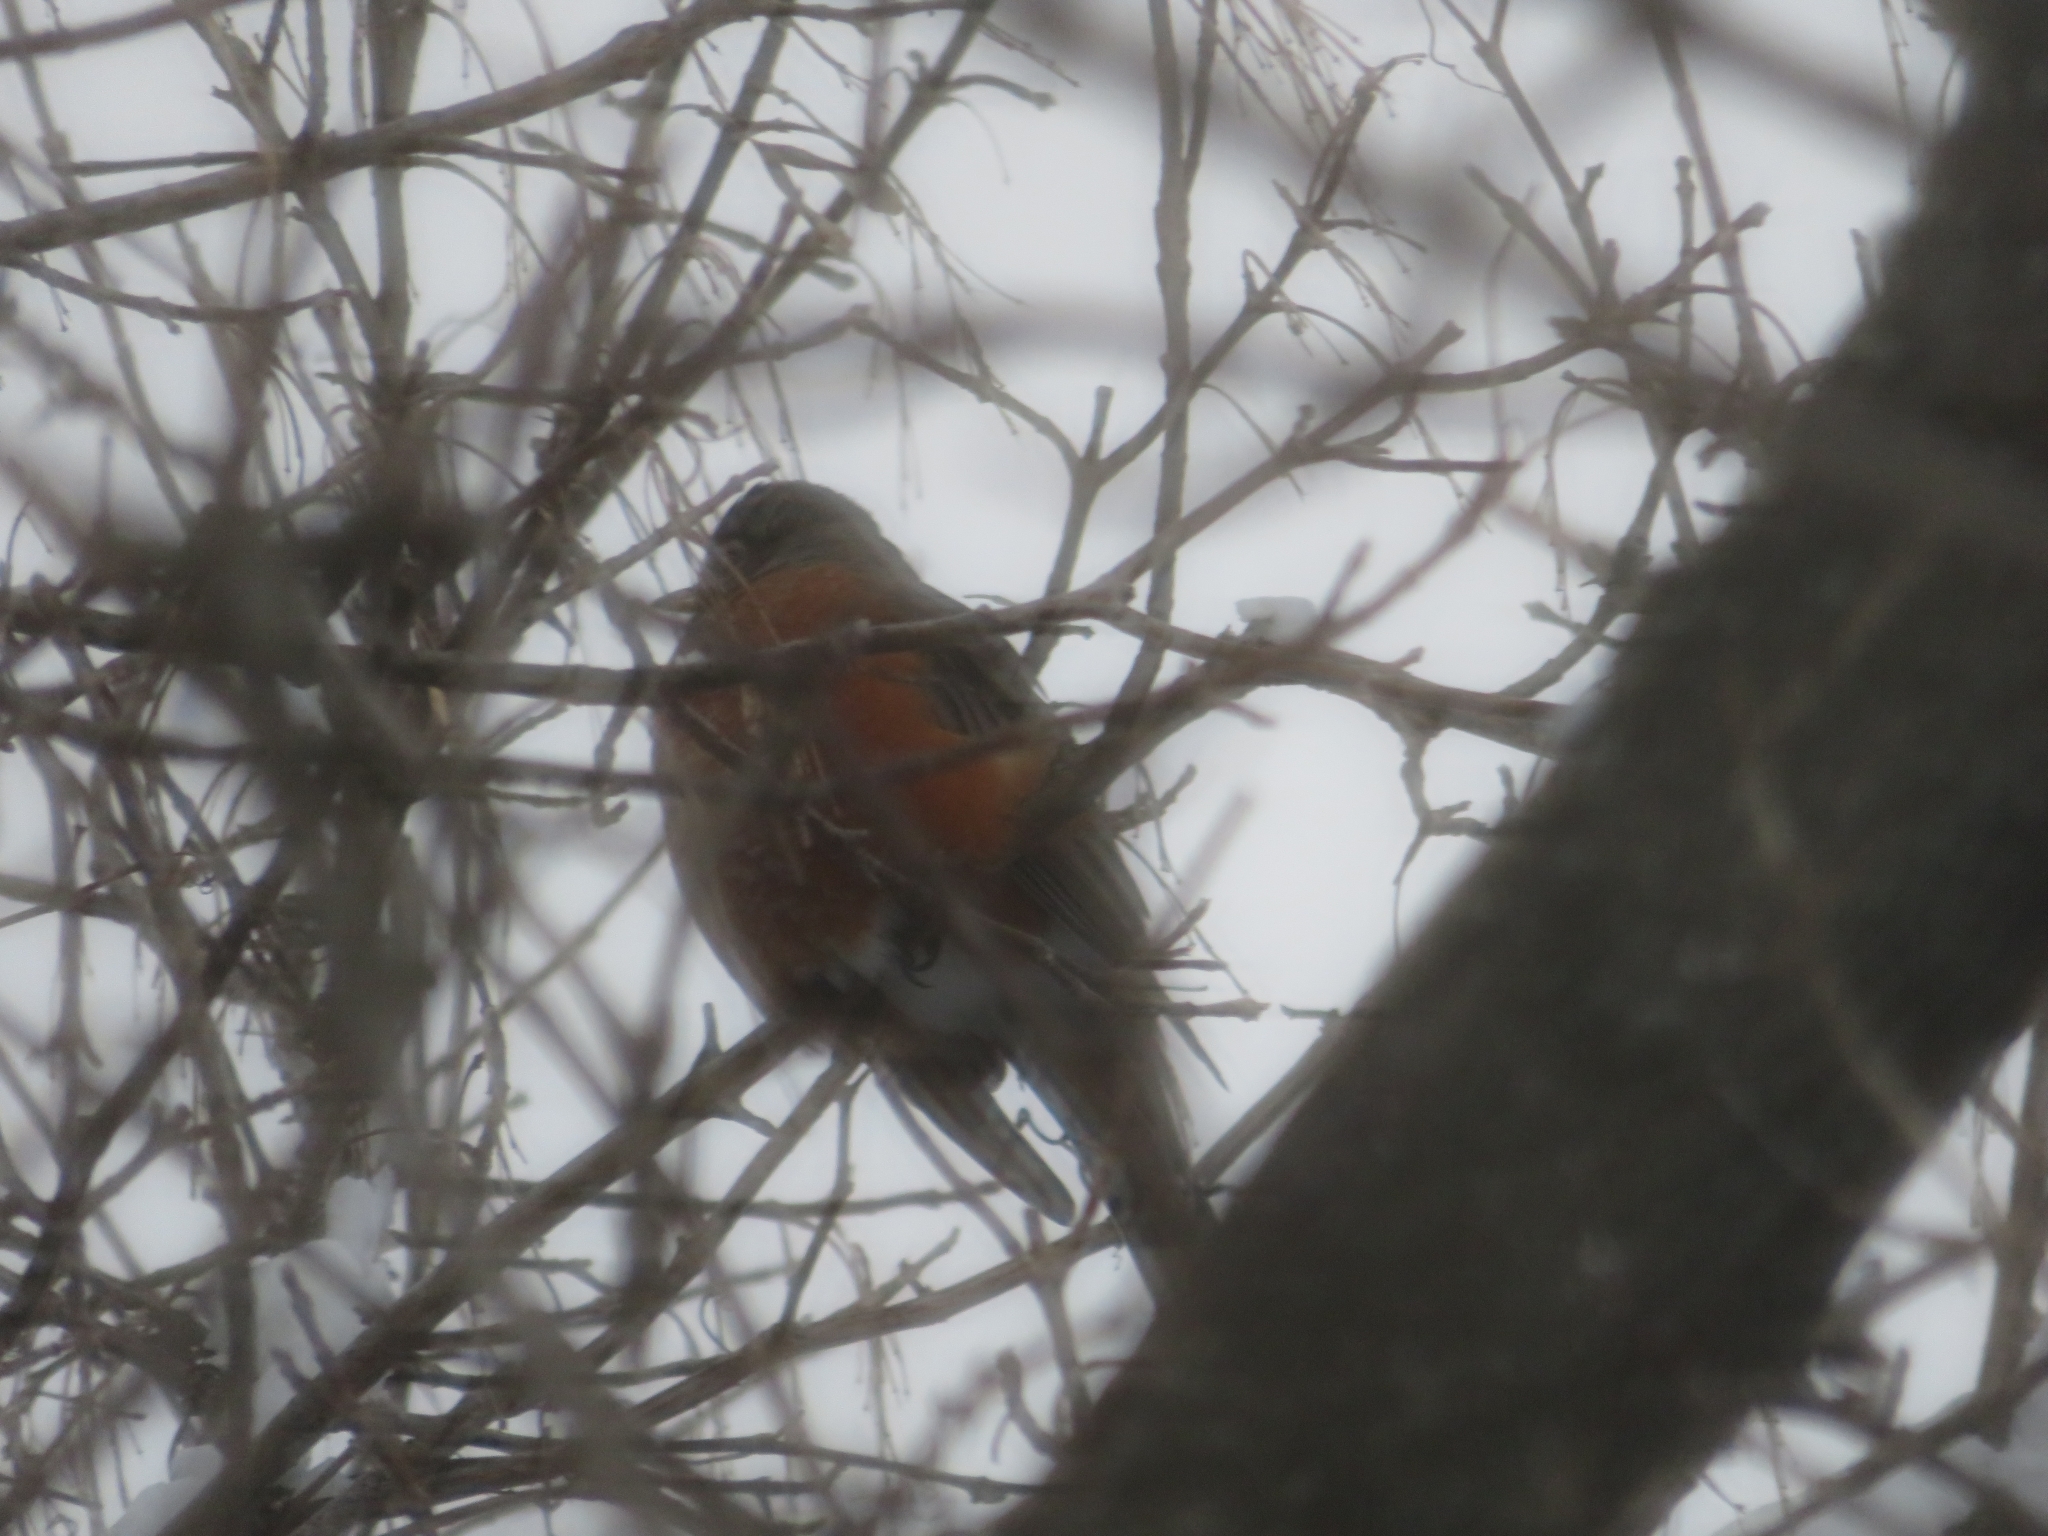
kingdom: Animalia
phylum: Chordata
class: Aves
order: Passeriformes
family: Turdidae
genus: Turdus
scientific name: Turdus migratorius
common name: American robin
